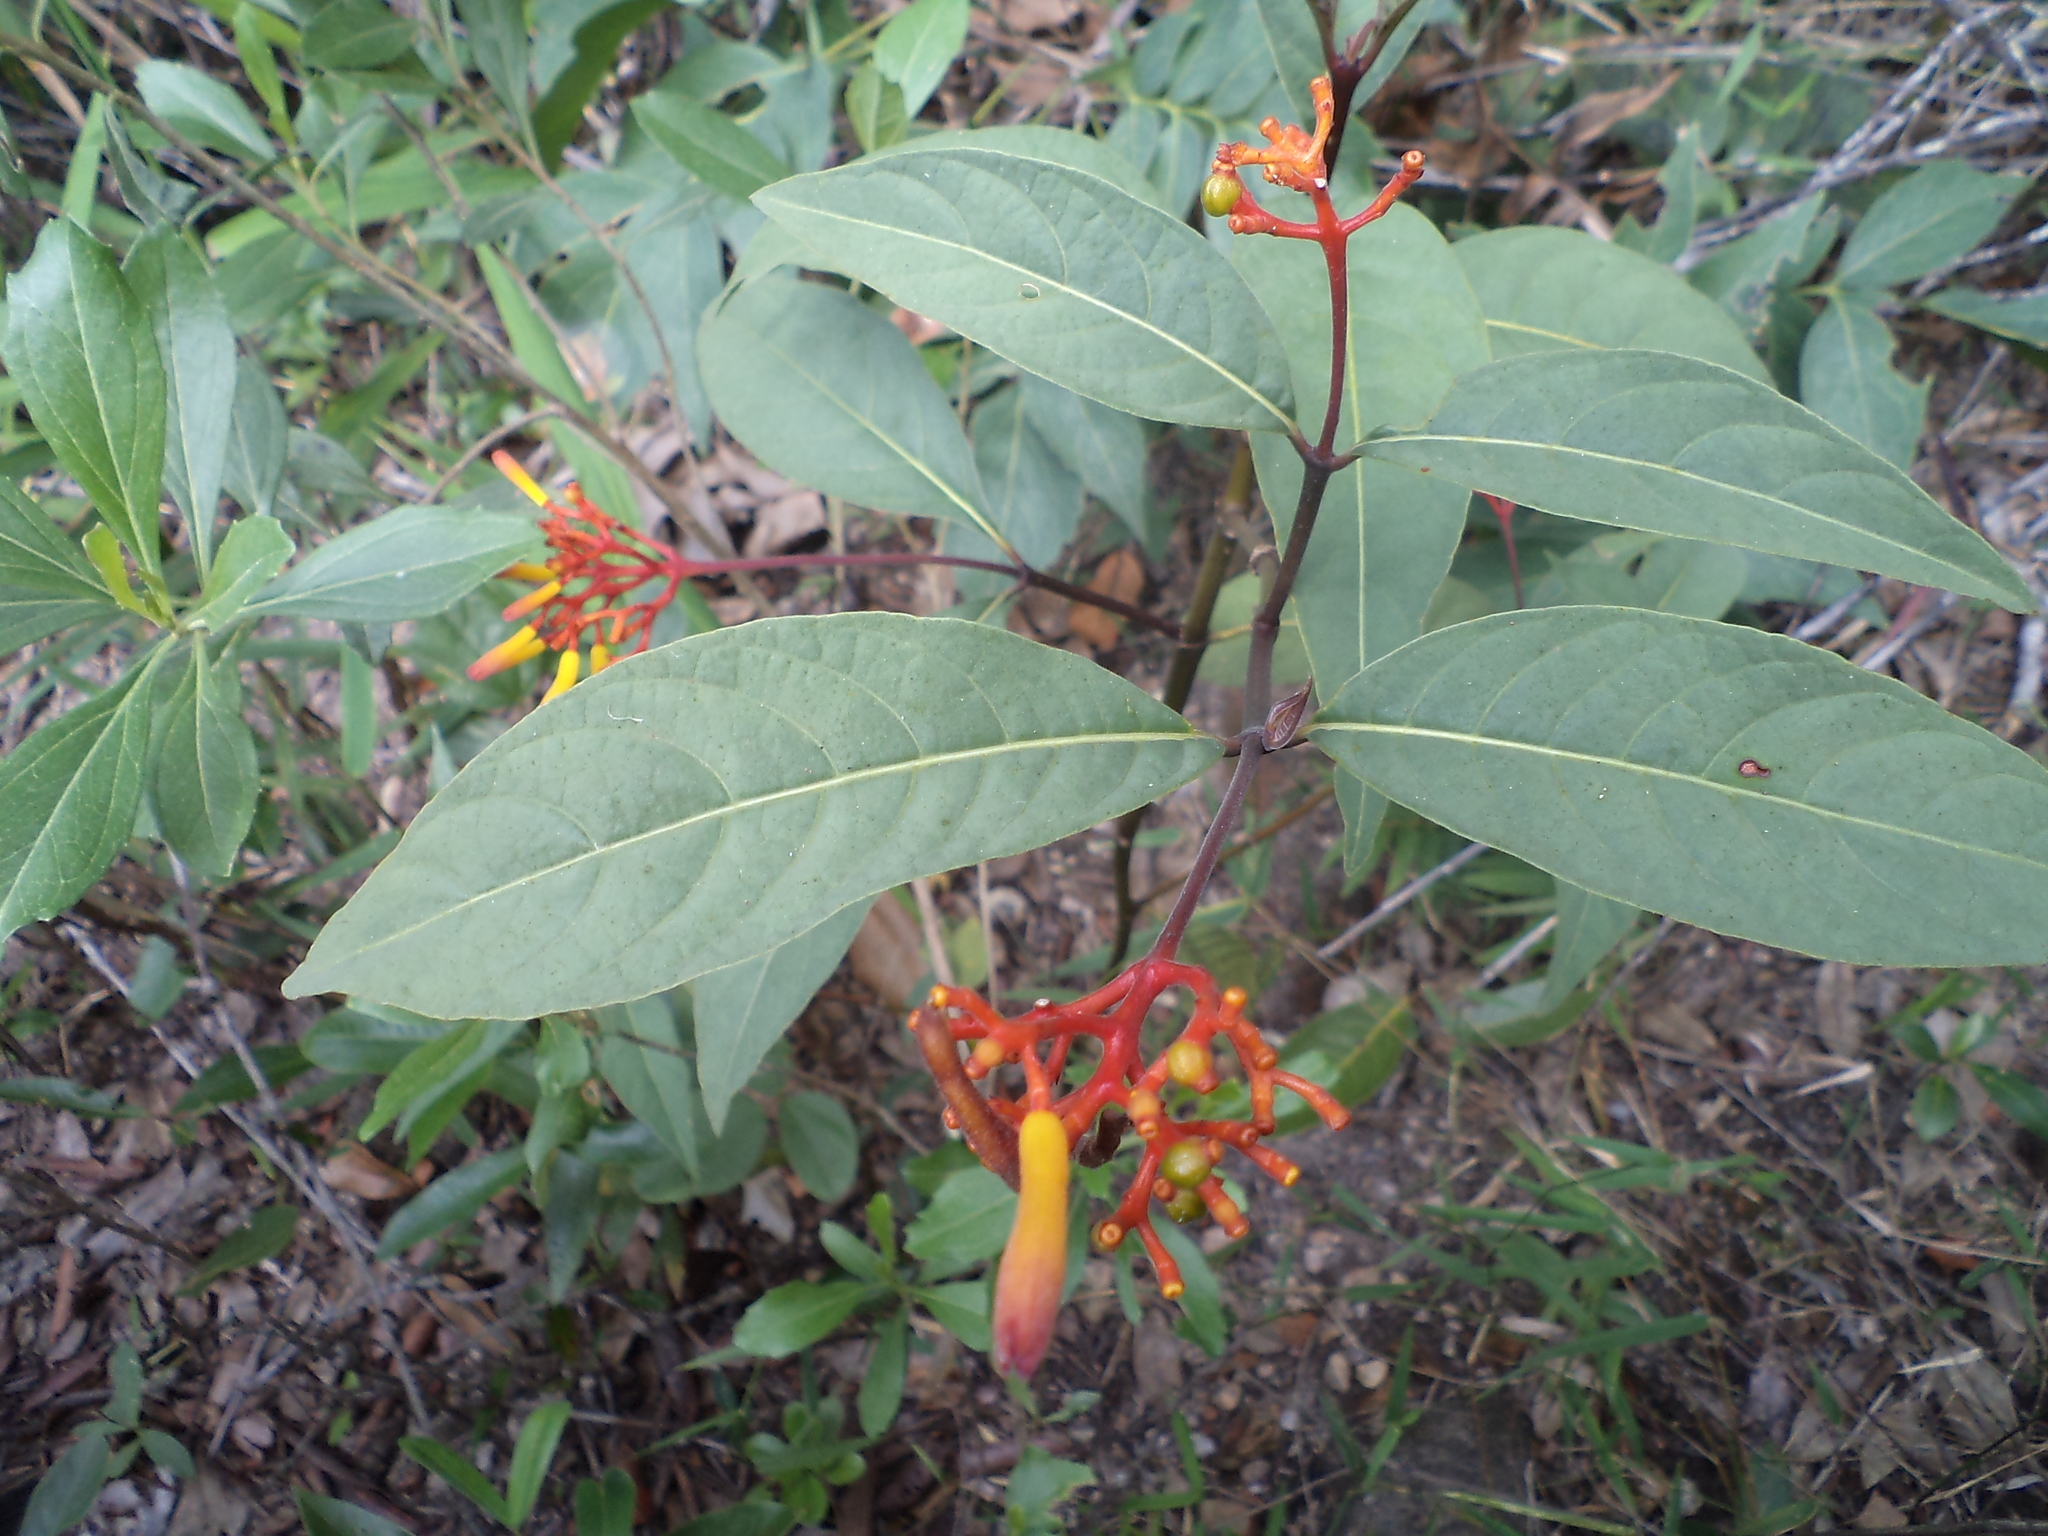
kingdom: Plantae
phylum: Tracheophyta
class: Magnoliopsida
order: Gentianales
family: Rubiaceae
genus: Palicourea
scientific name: Palicourea marcgravii
